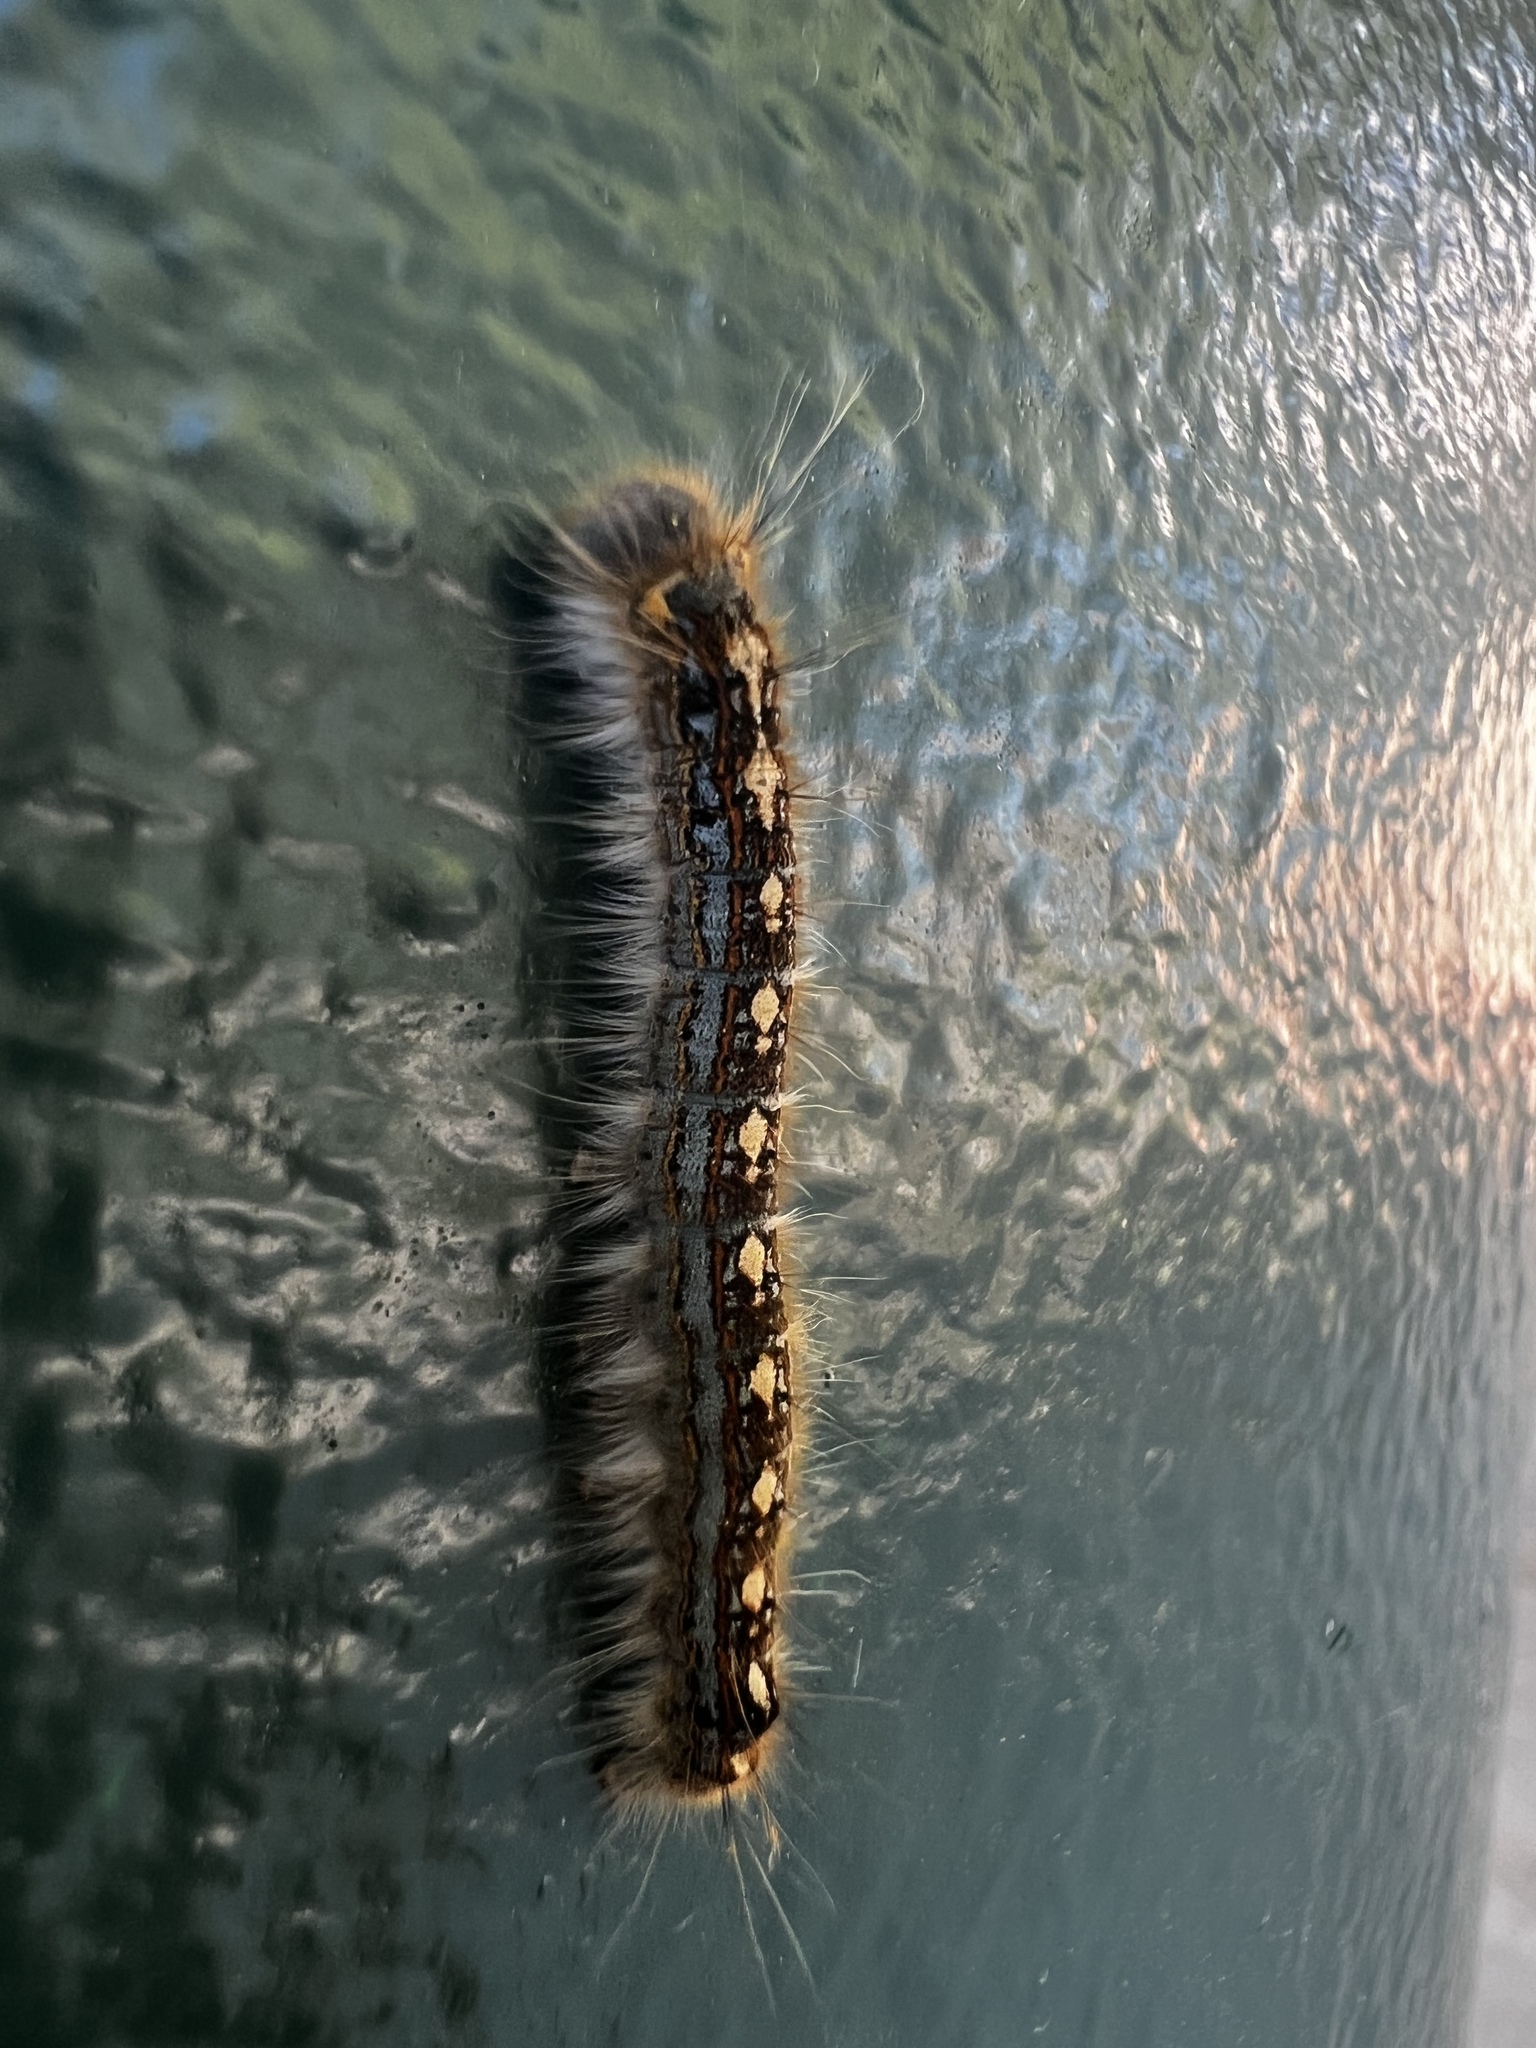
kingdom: Animalia
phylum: Arthropoda
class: Insecta
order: Lepidoptera
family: Lasiocampidae
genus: Malacosoma
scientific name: Malacosoma disstria
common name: Forest tent caterpillar
